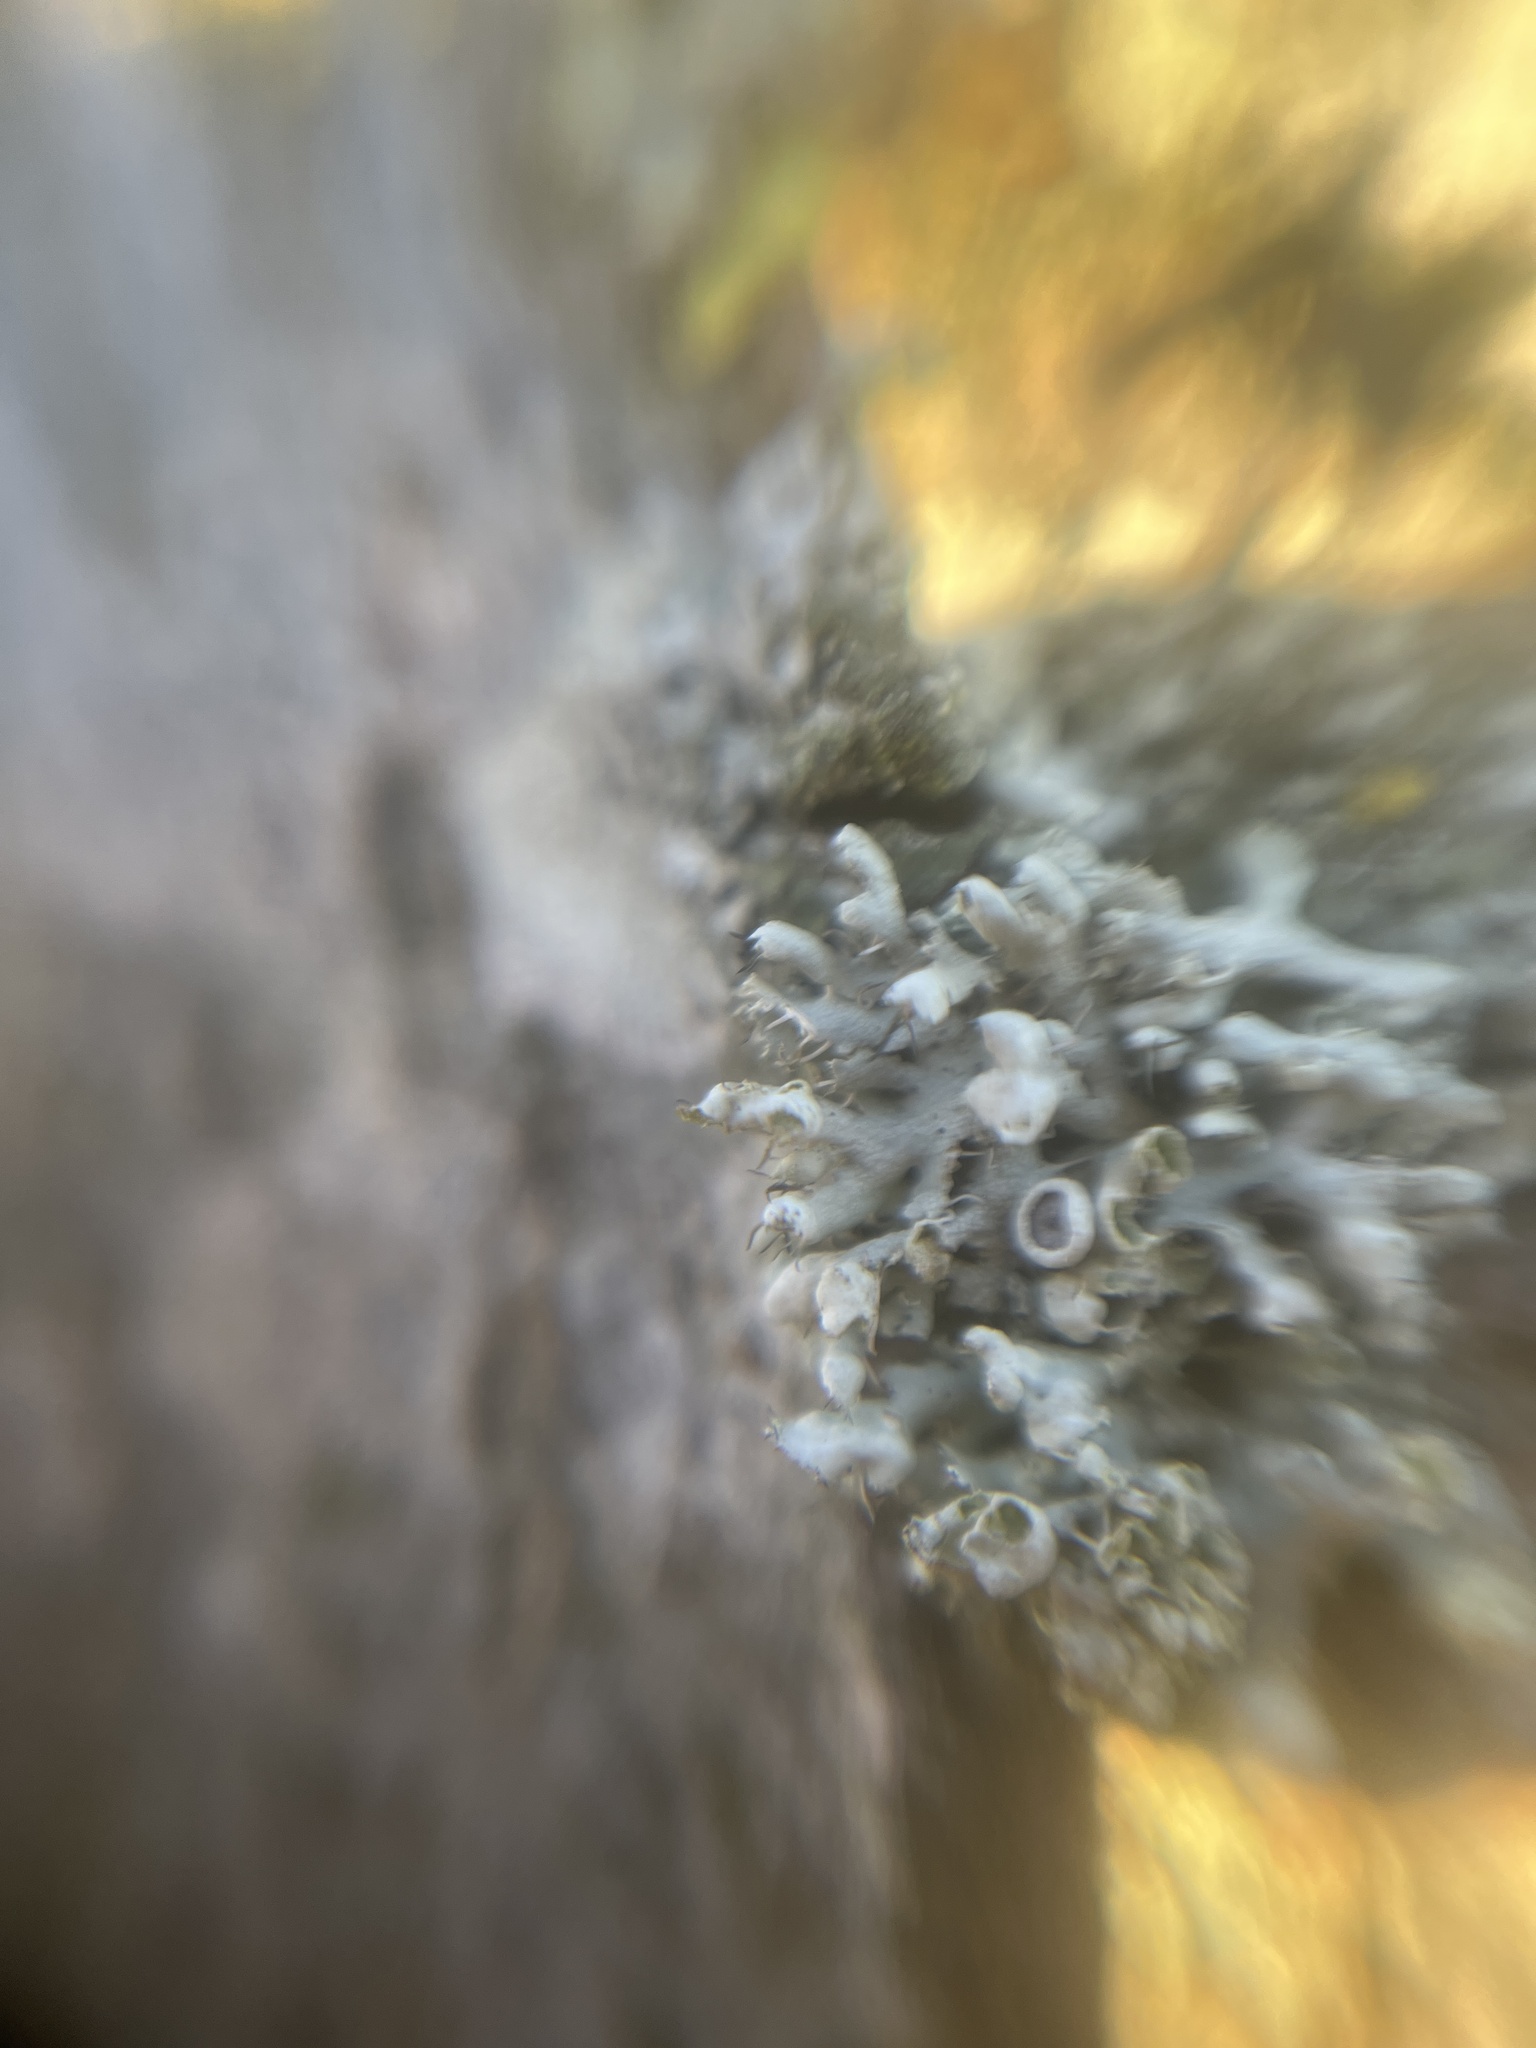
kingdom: Fungi
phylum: Ascomycota
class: Lecanoromycetes
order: Caliciales
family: Physciaceae
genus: Physcia
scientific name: Physcia adscendens
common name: Hooded rosette lichen
